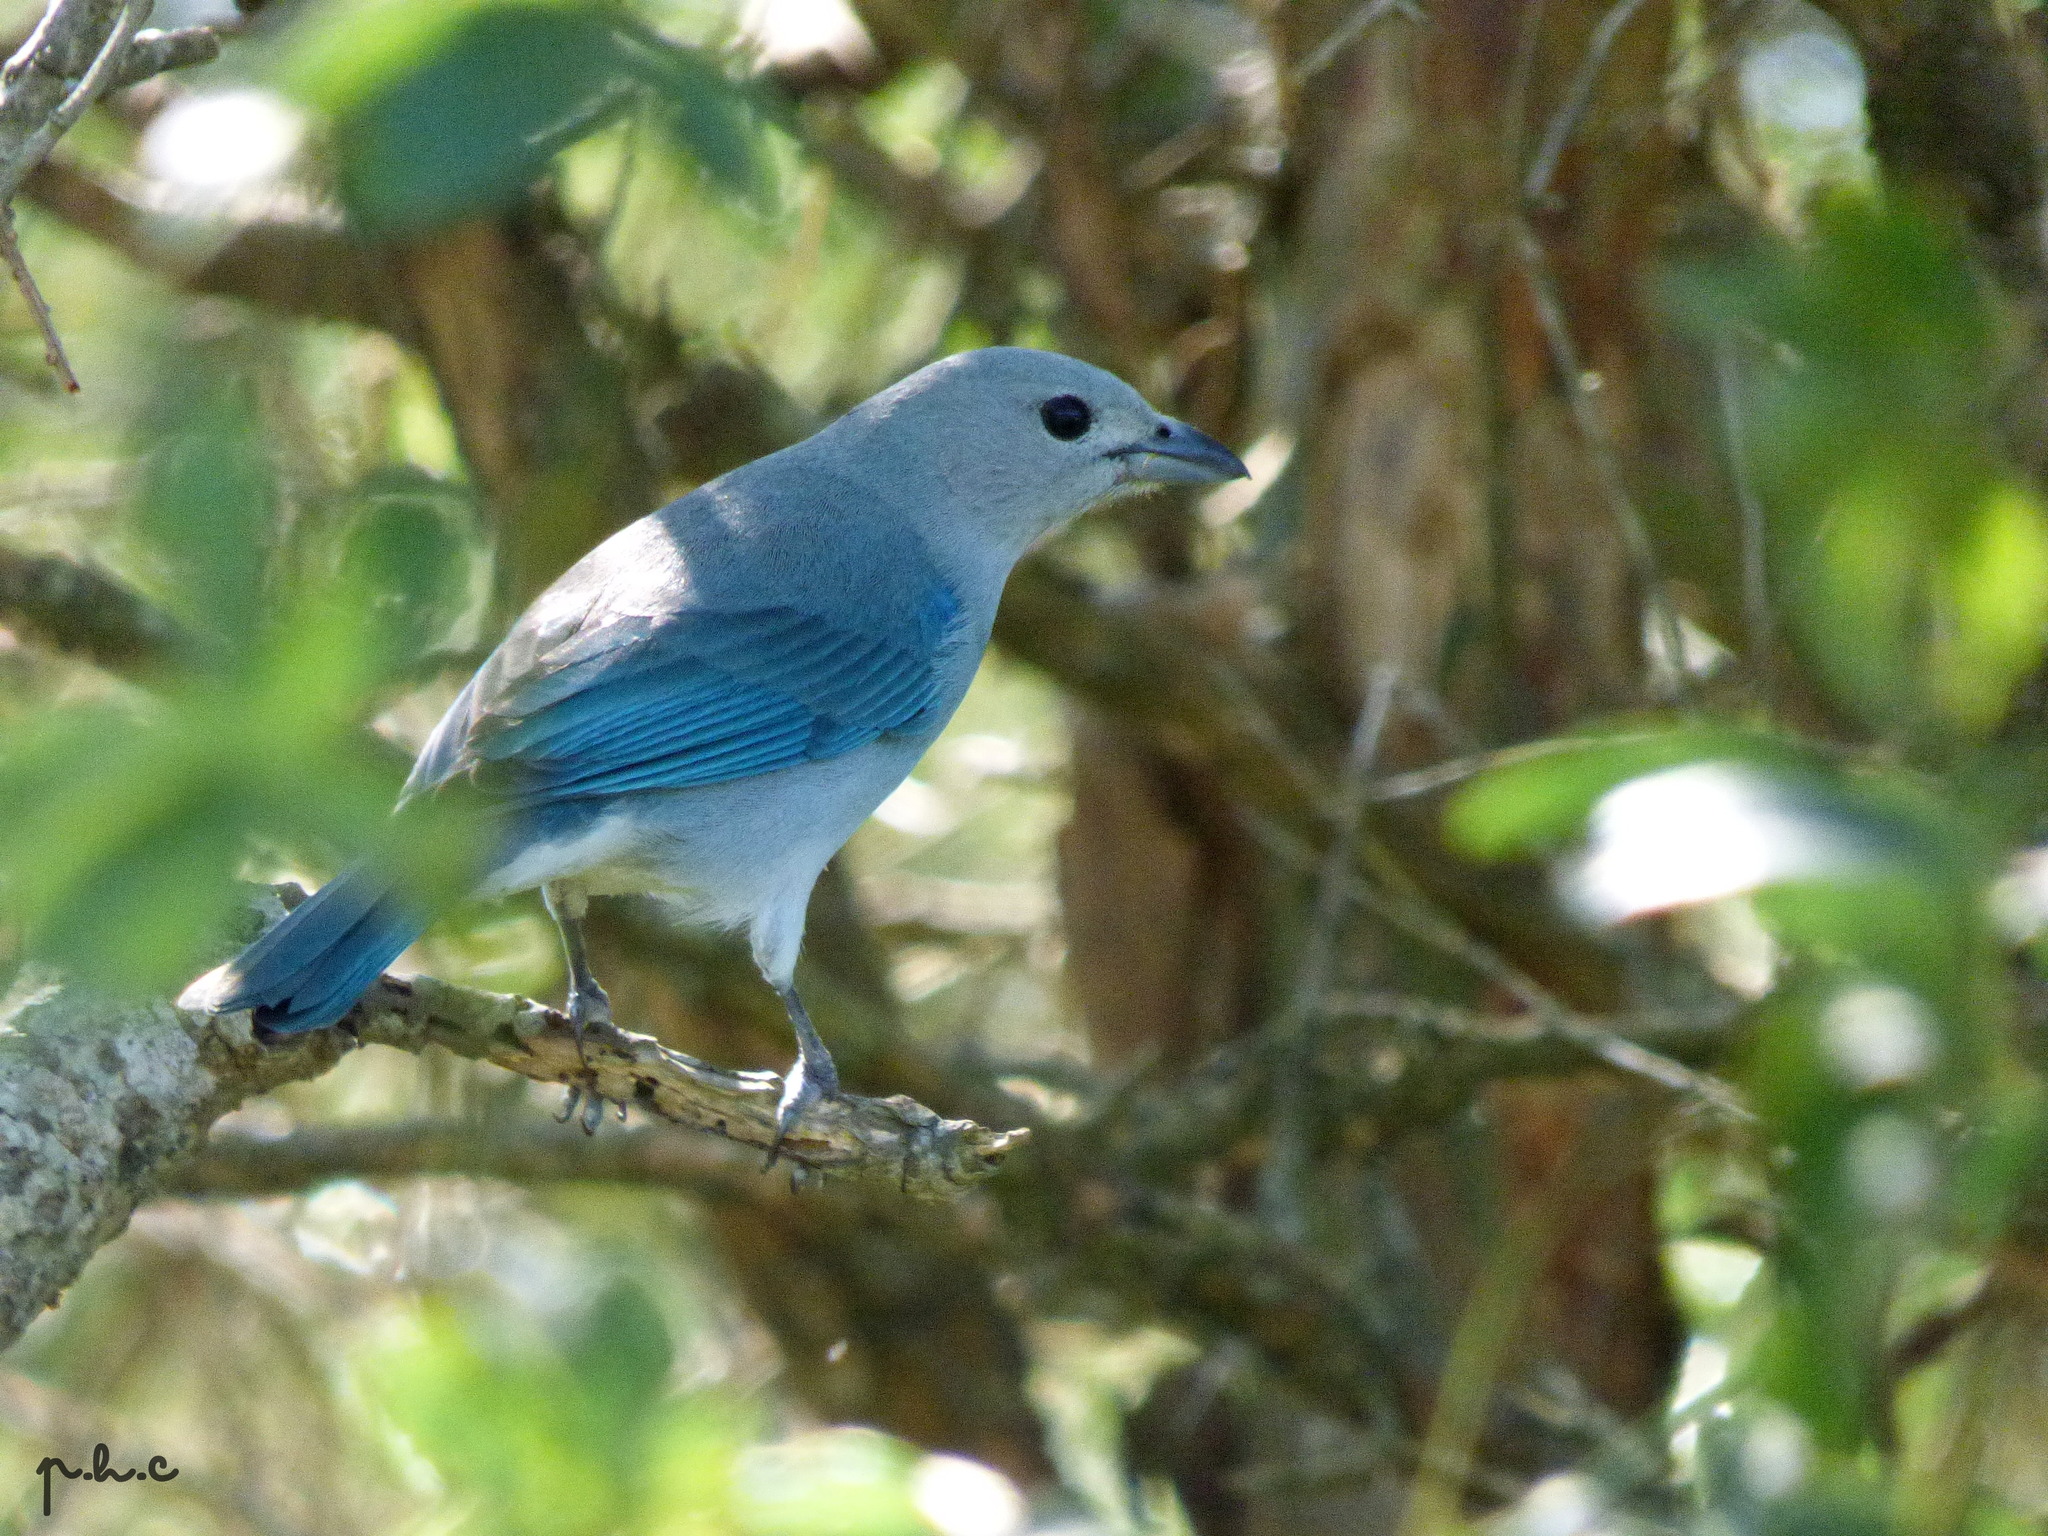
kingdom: Animalia
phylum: Chordata
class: Aves
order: Passeriformes
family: Thraupidae
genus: Thraupis
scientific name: Thraupis sayaca
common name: Sayaca tanager
